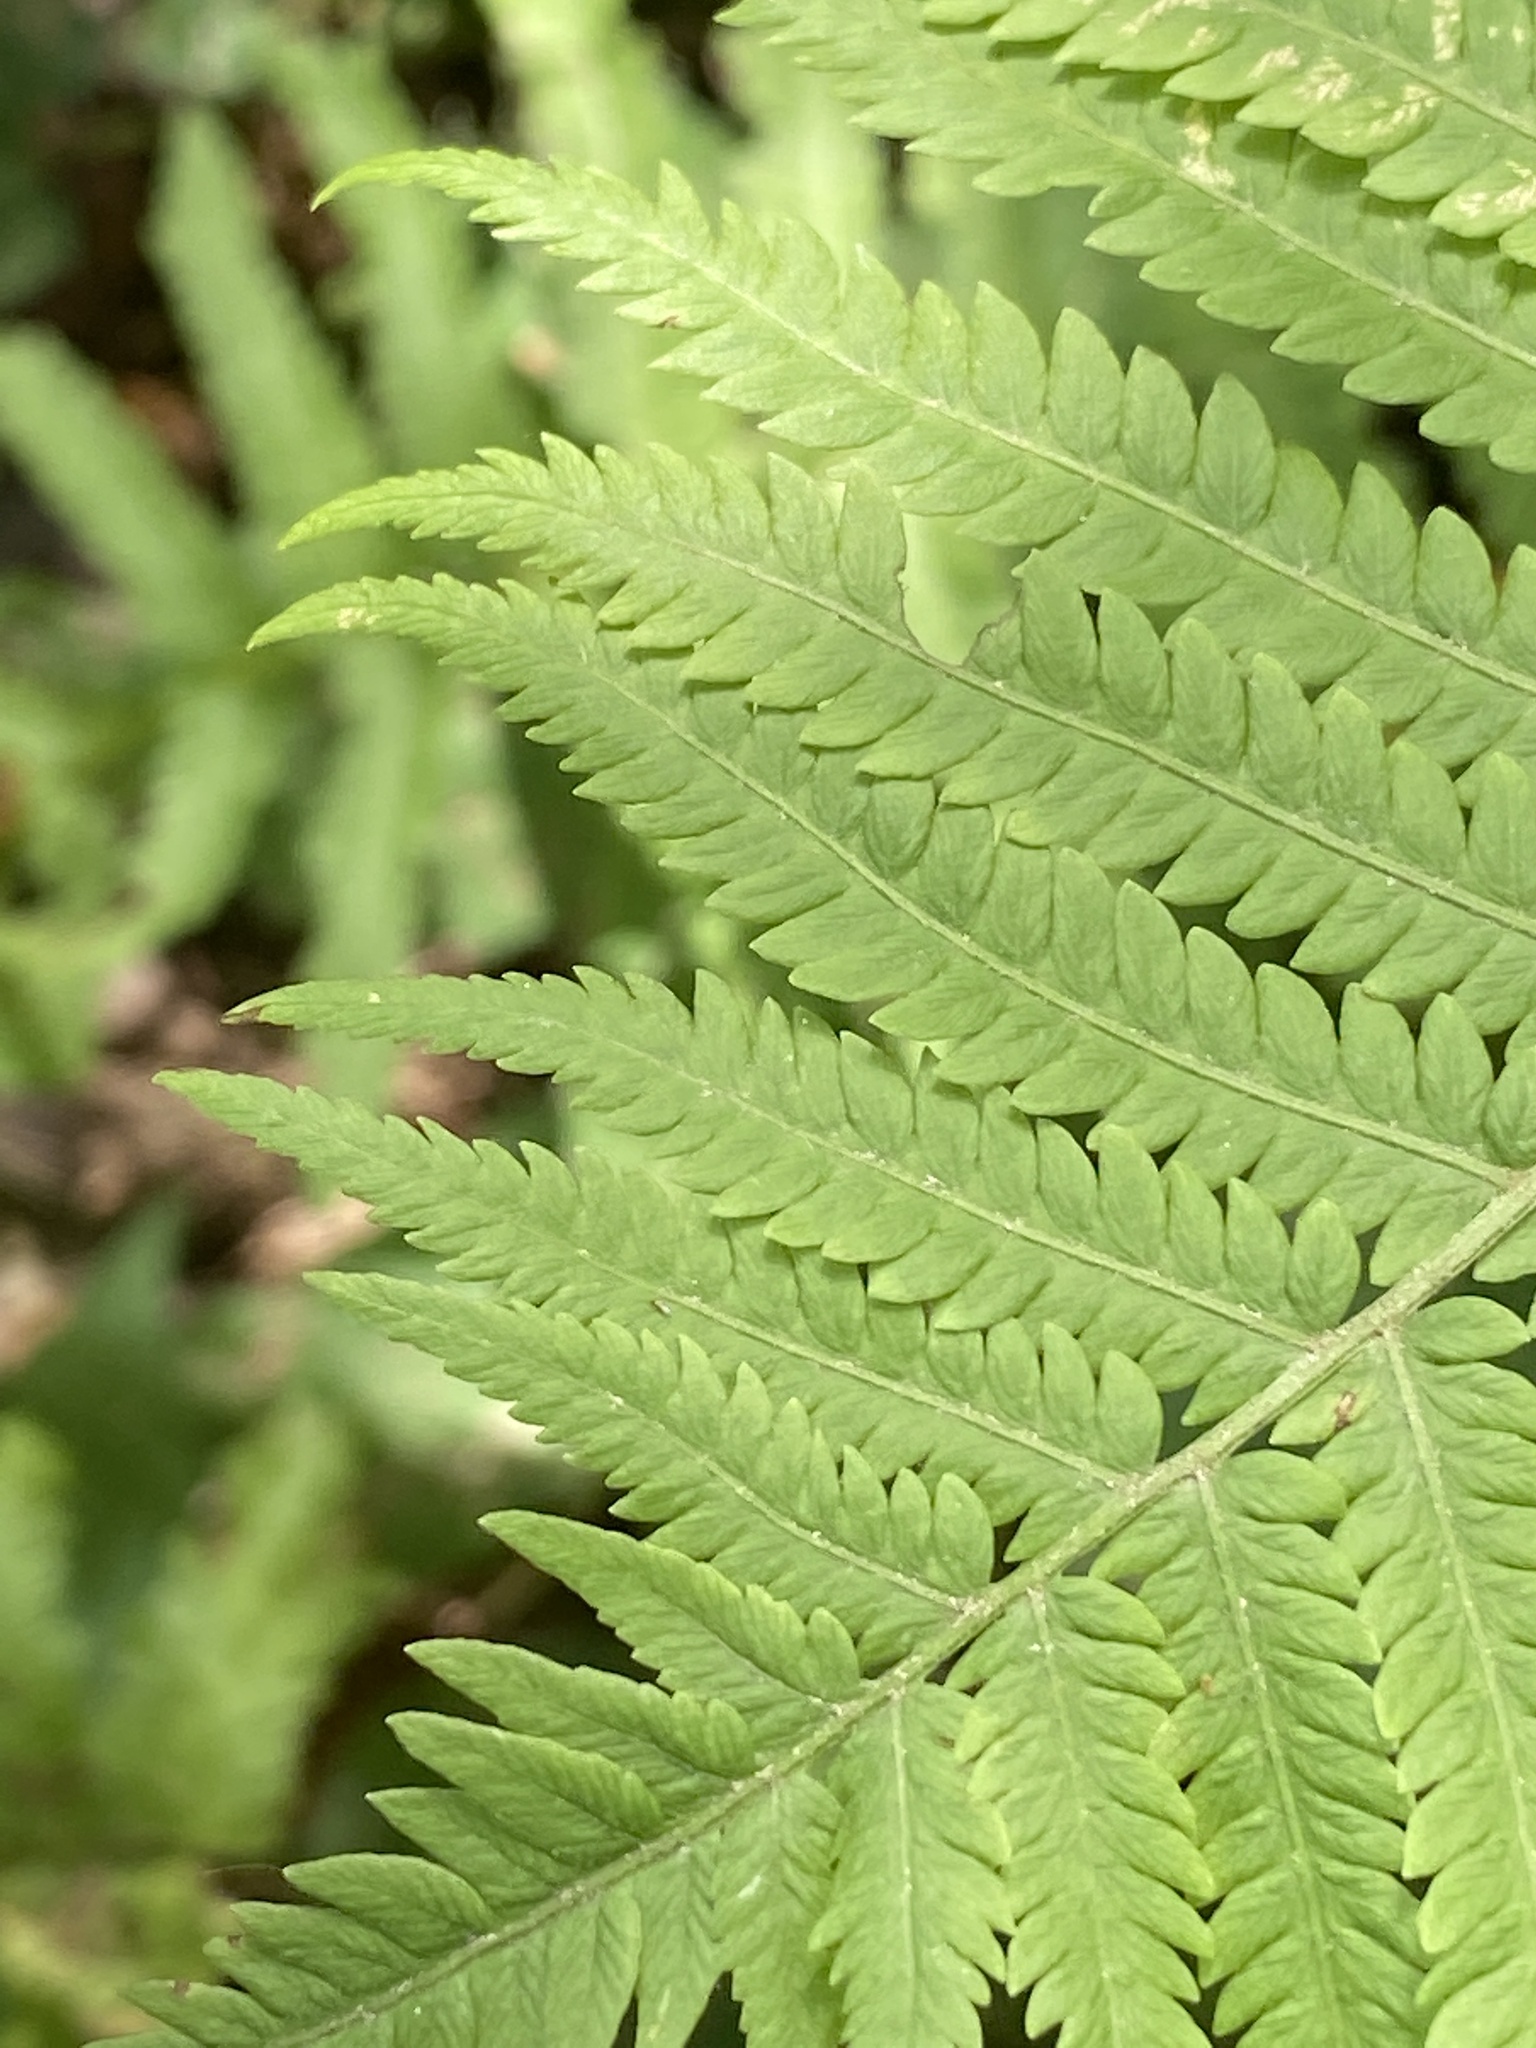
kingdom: Plantae
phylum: Tracheophyta
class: Polypodiopsida
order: Polypodiales
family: Onocleaceae
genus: Matteuccia
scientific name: Matteuccia struthiopteris
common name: Ostrich fern
